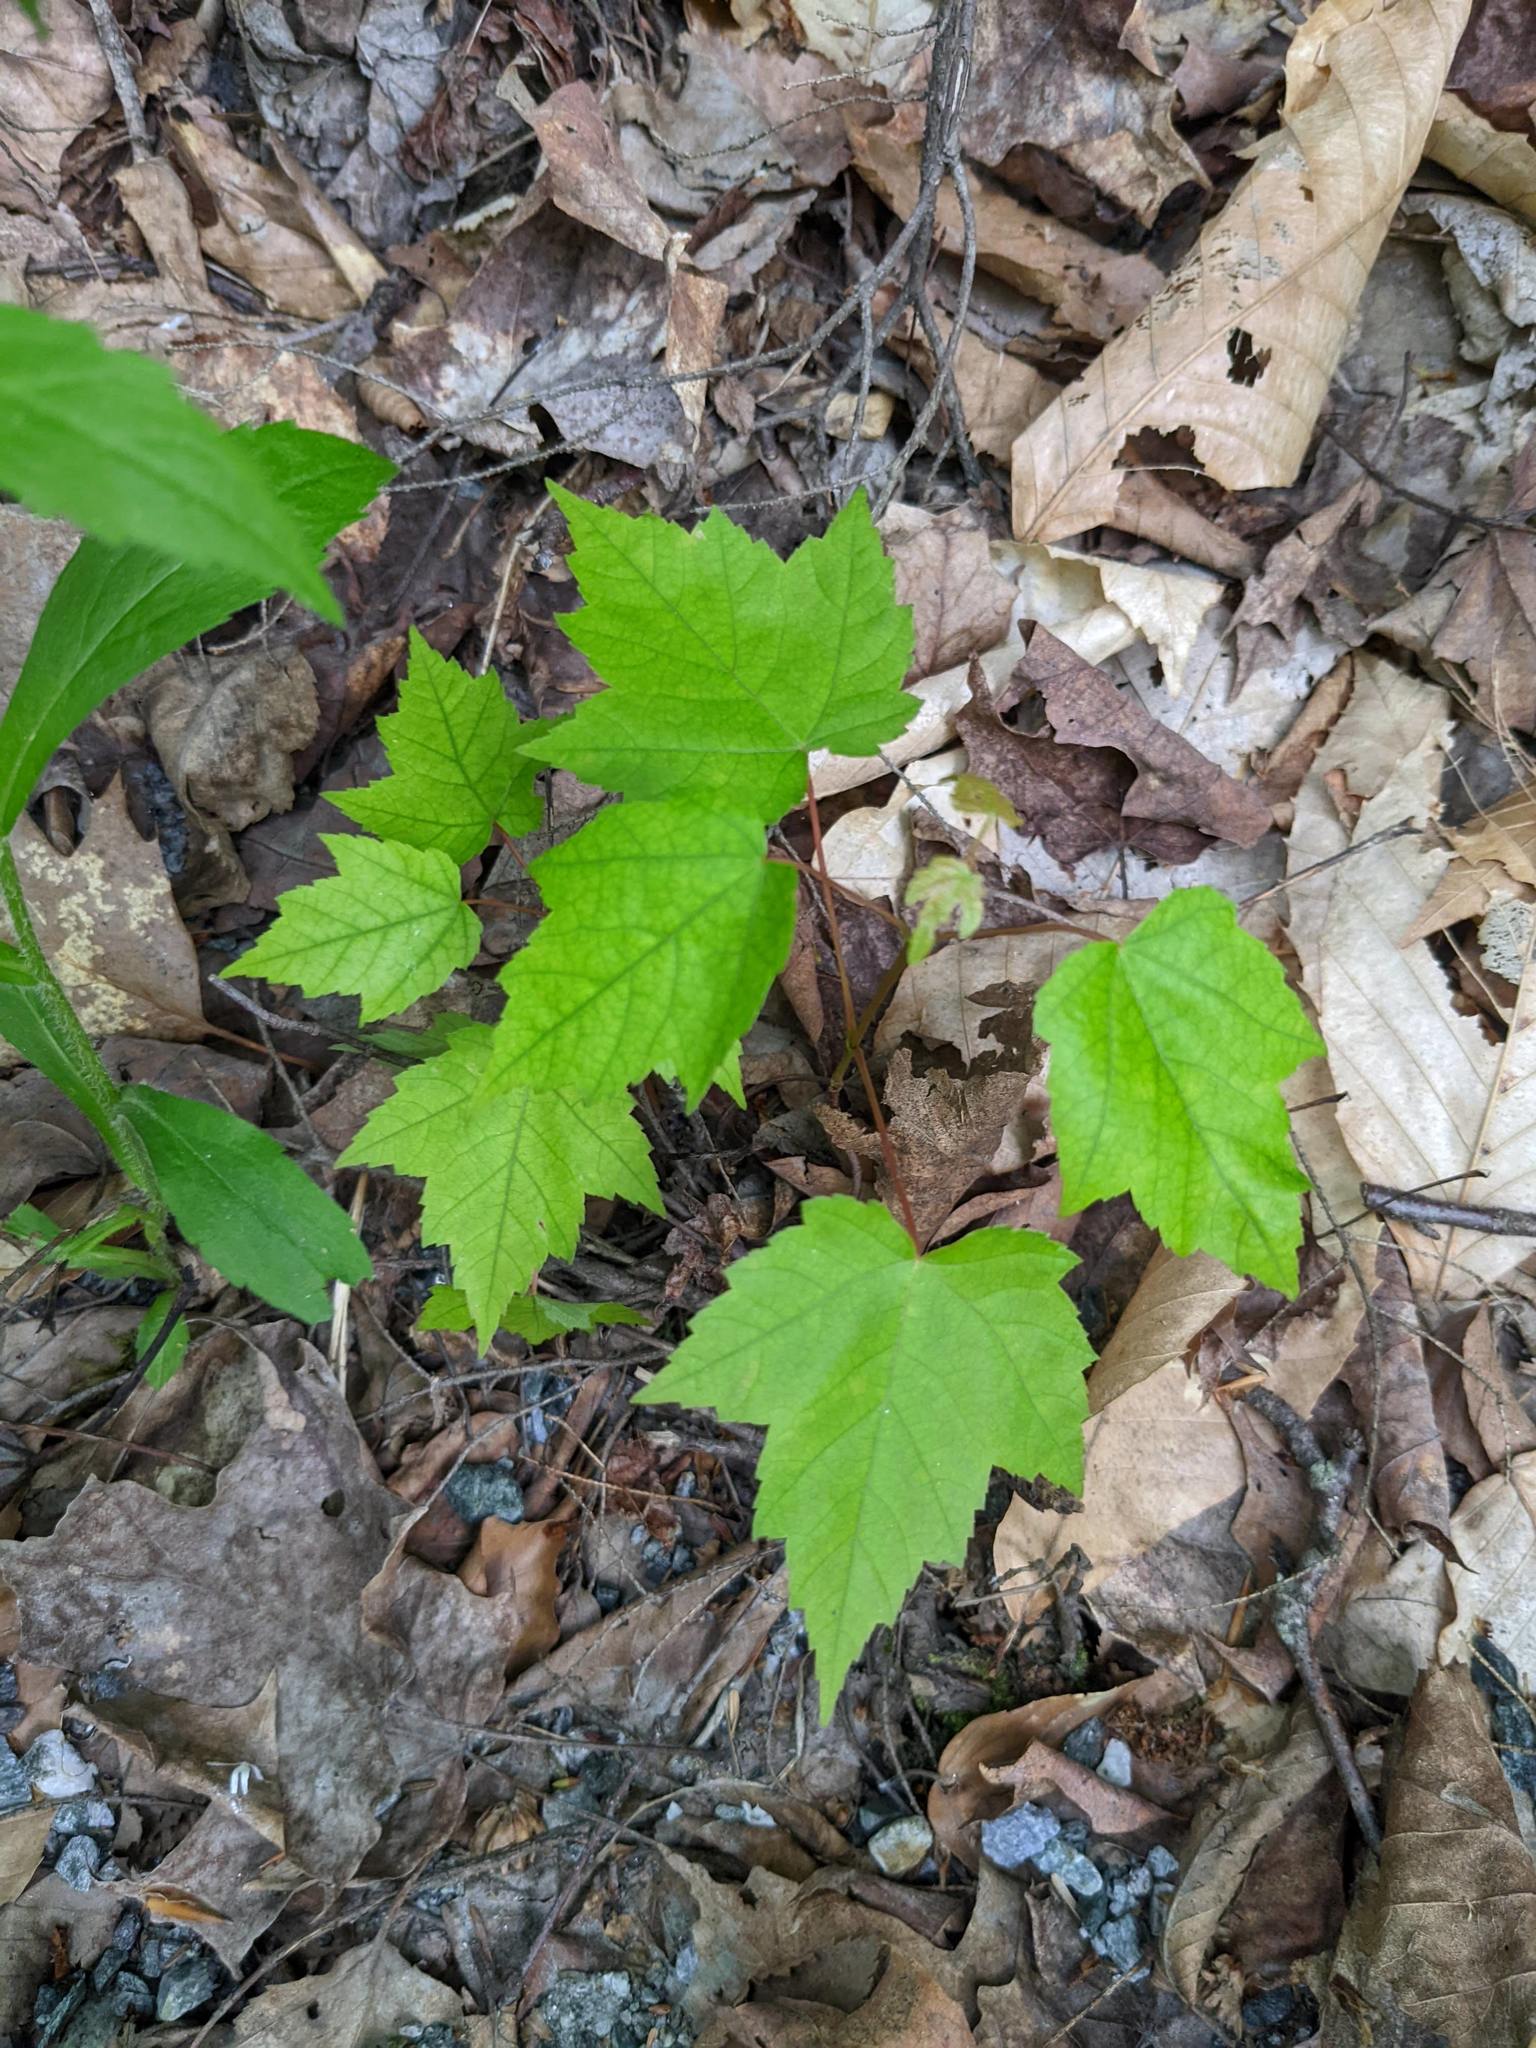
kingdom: Plantae
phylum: Tracheophyta
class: Magnoliopsida
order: Sapindales
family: Sapindaceae
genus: Acer
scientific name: Acer rubrum
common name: Red maple
